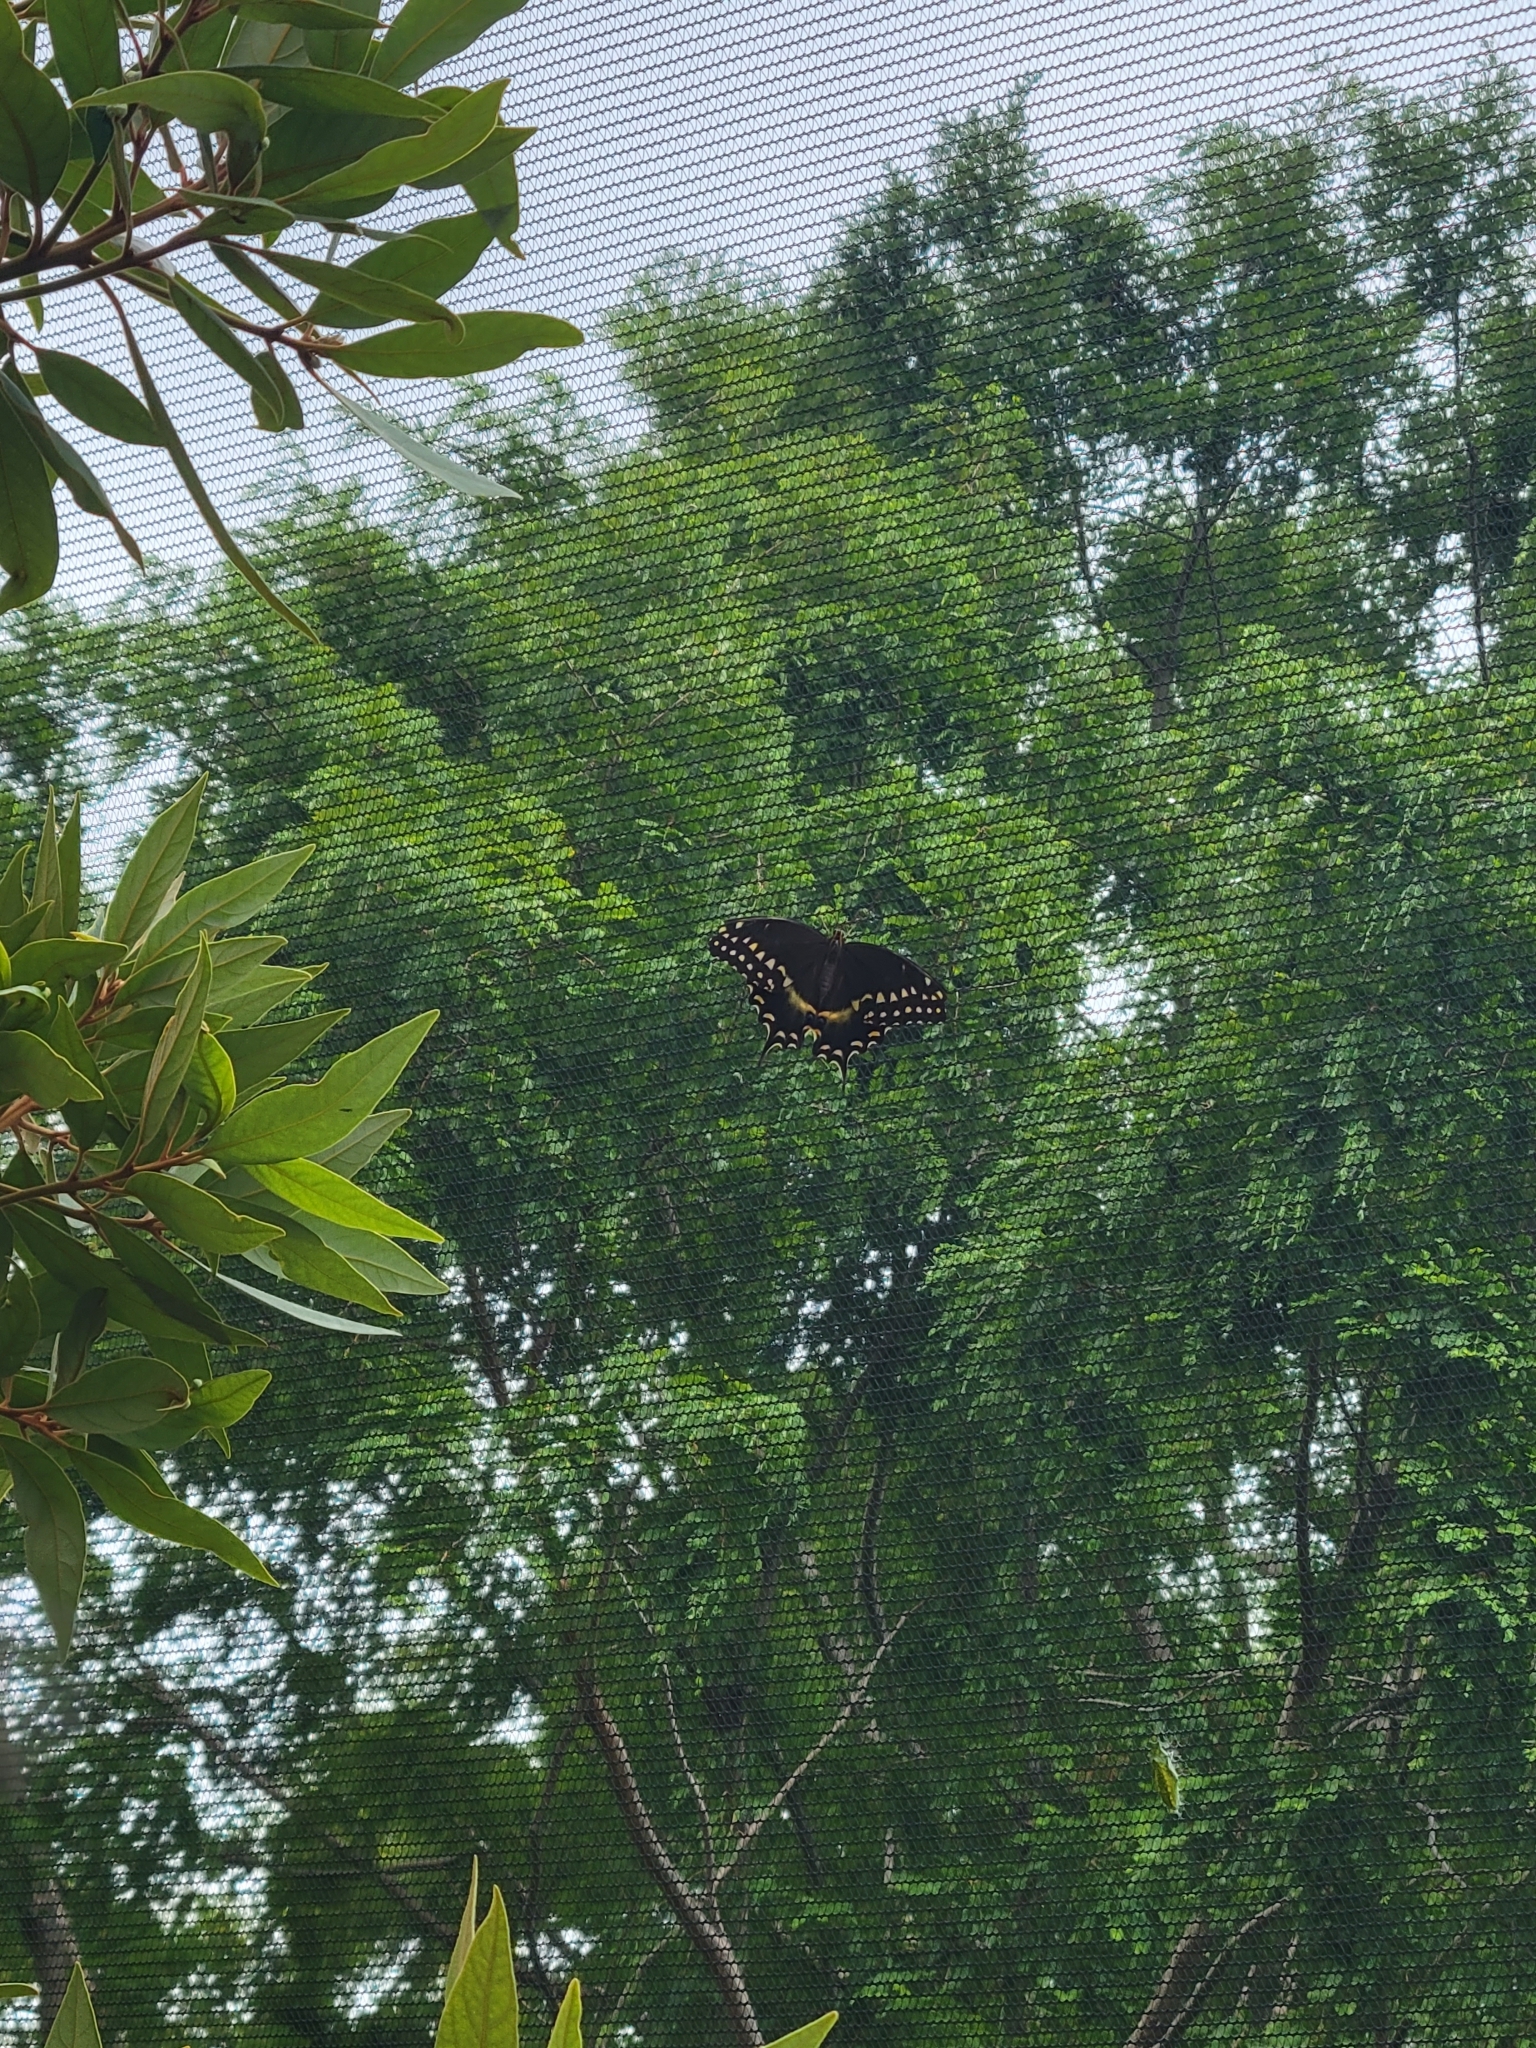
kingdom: Animalia
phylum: Arthropoda
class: Insecta
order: Lepidoptera
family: Papilionidae
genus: Papilio
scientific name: Papilio palamedes
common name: Palamedes swallowtail
